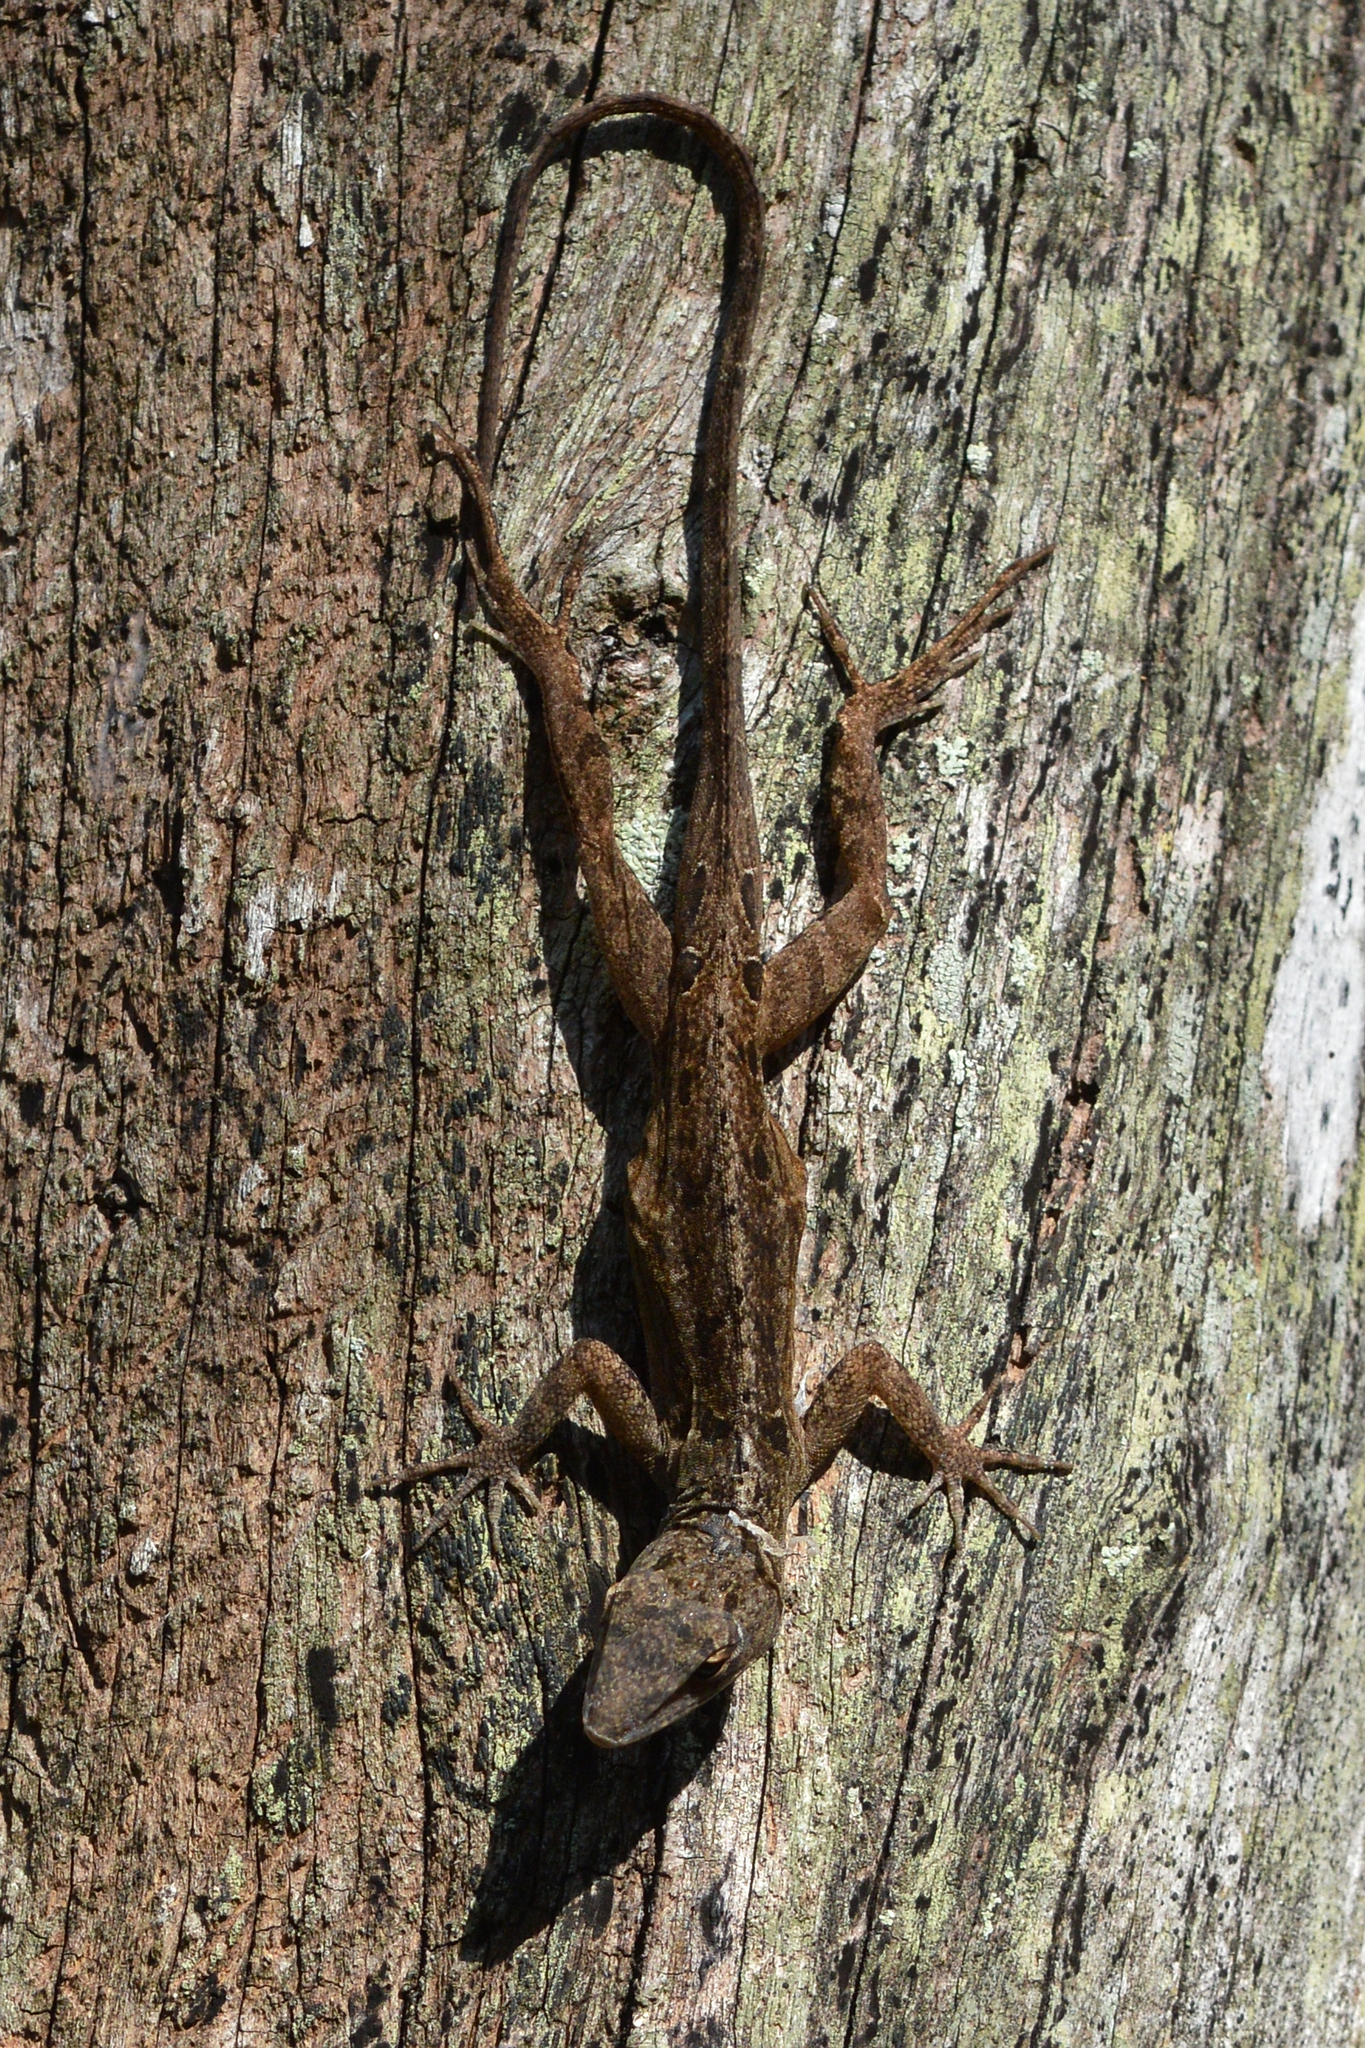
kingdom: Animalia
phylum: Chordata
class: Squamata
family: Dactyloidae
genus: Anolis
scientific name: Anolis sagrei
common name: Brown anole
